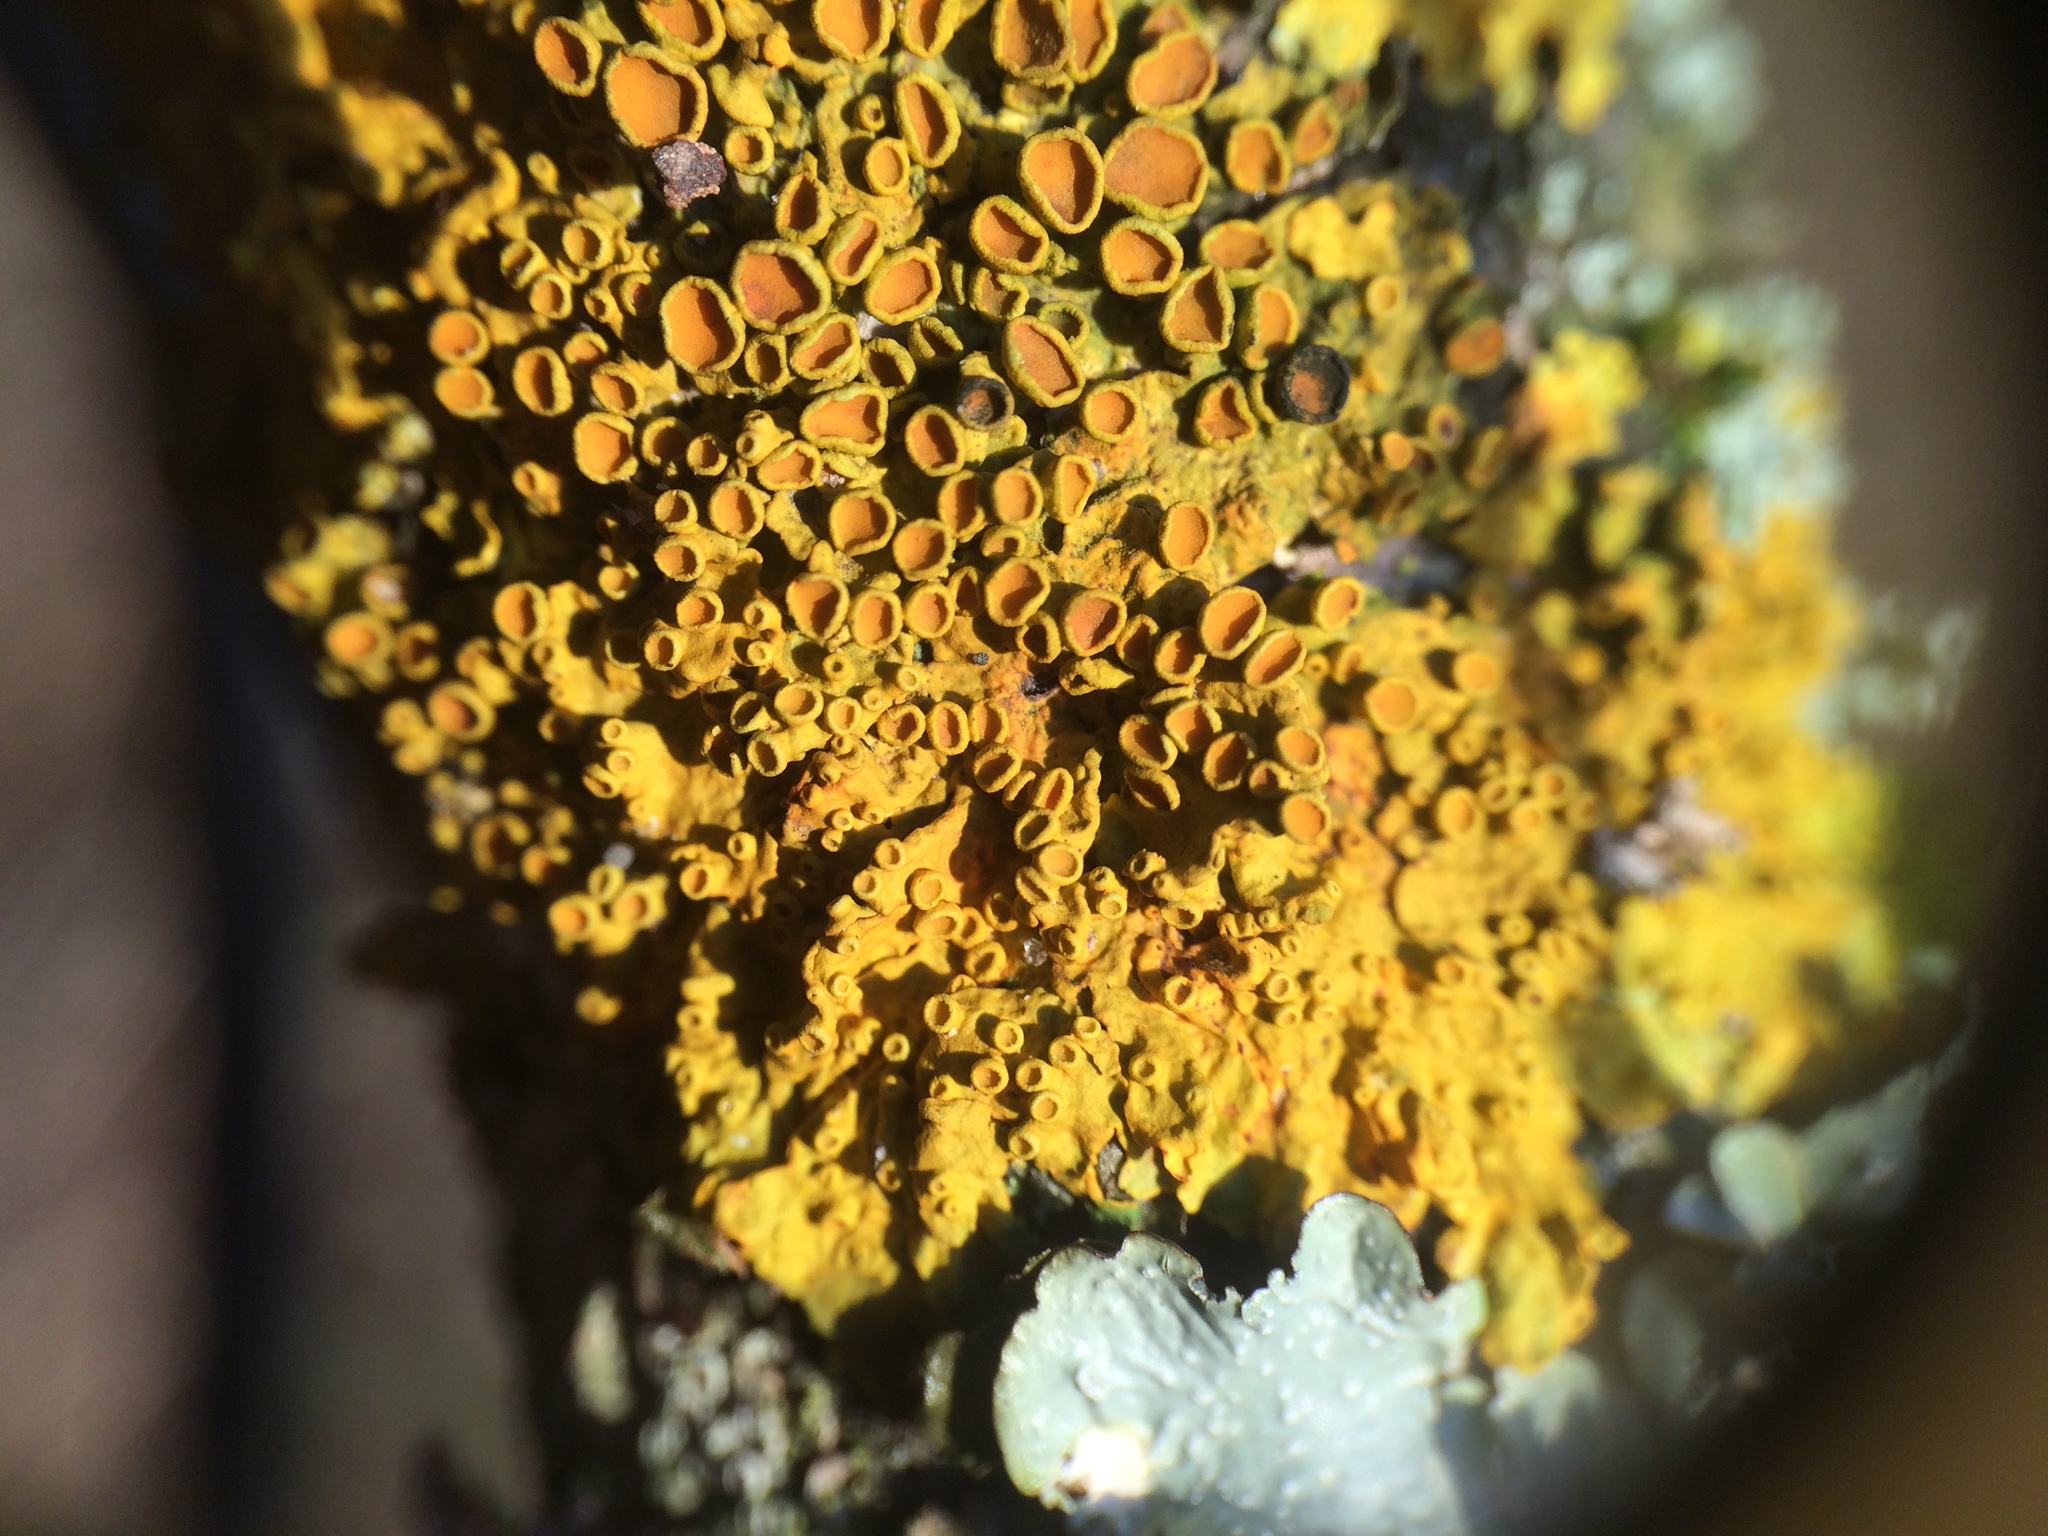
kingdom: Fungi
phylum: Ascomycota
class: Lecanoromycetes
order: Teloschistales
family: Teloschistaceae
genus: Xanthoria
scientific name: Xanthoria parietina
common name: Common orange lichen
